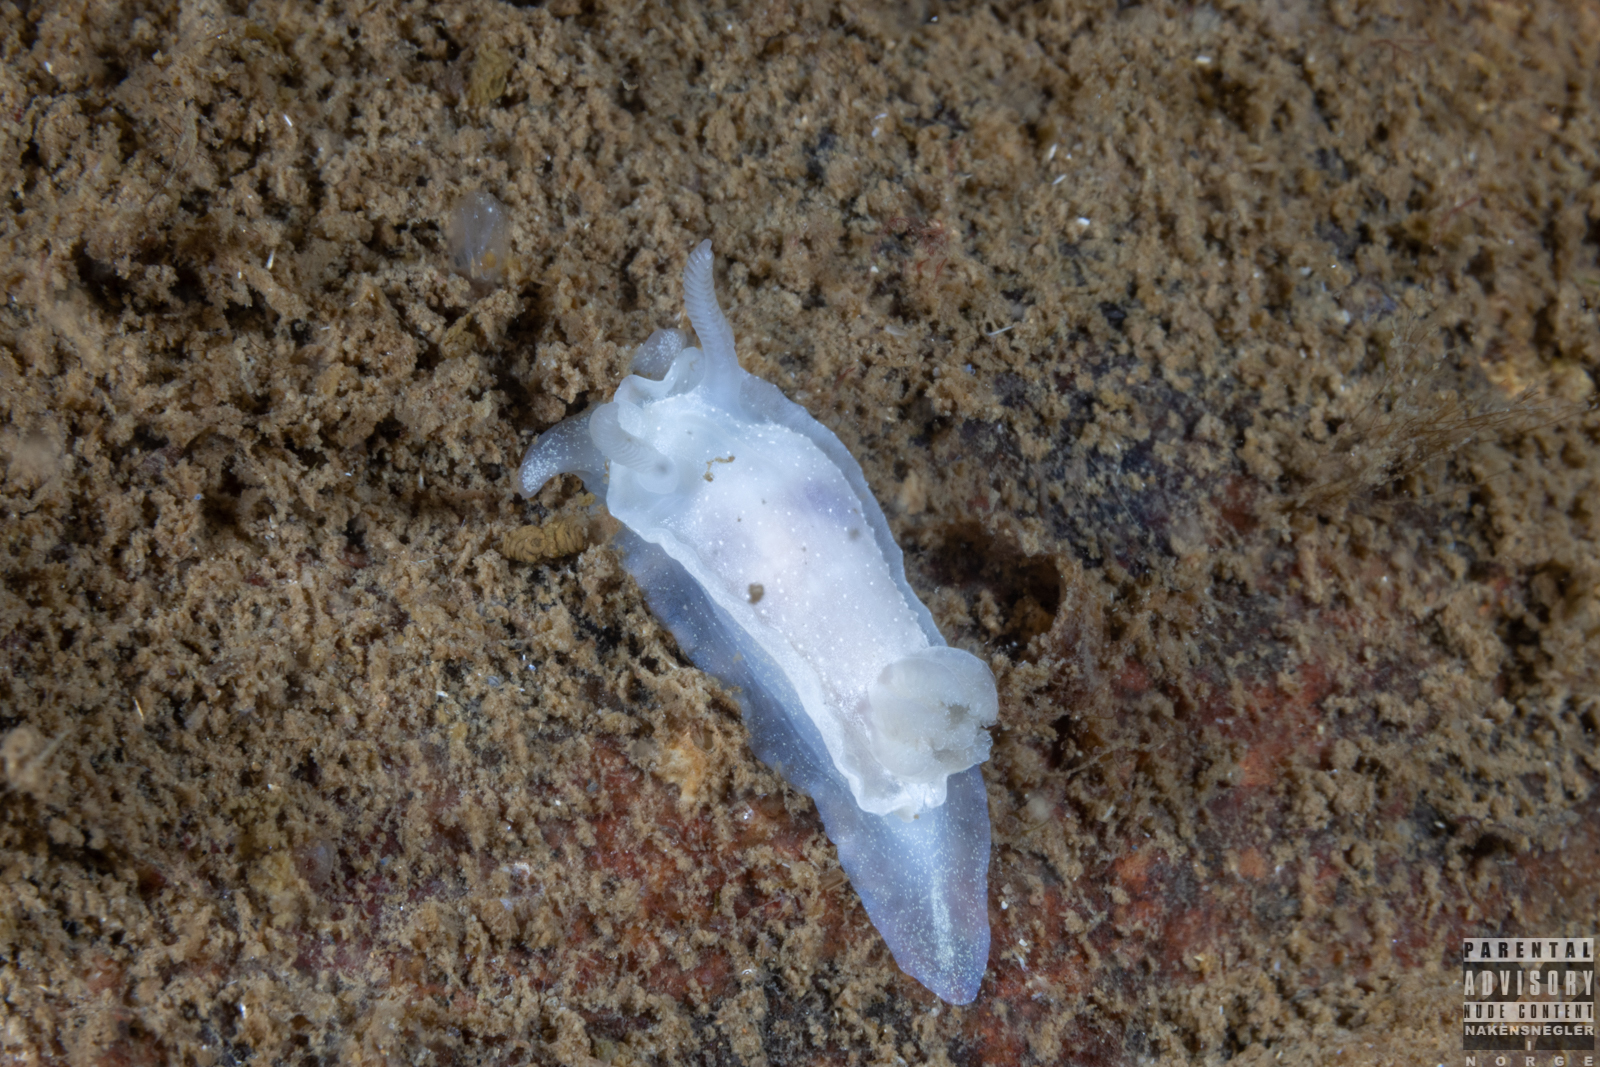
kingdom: Animalia
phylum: Mollusca
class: Gastropoda
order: Nudibranchia
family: Goniodorididae
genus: Okenia
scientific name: Okenia
